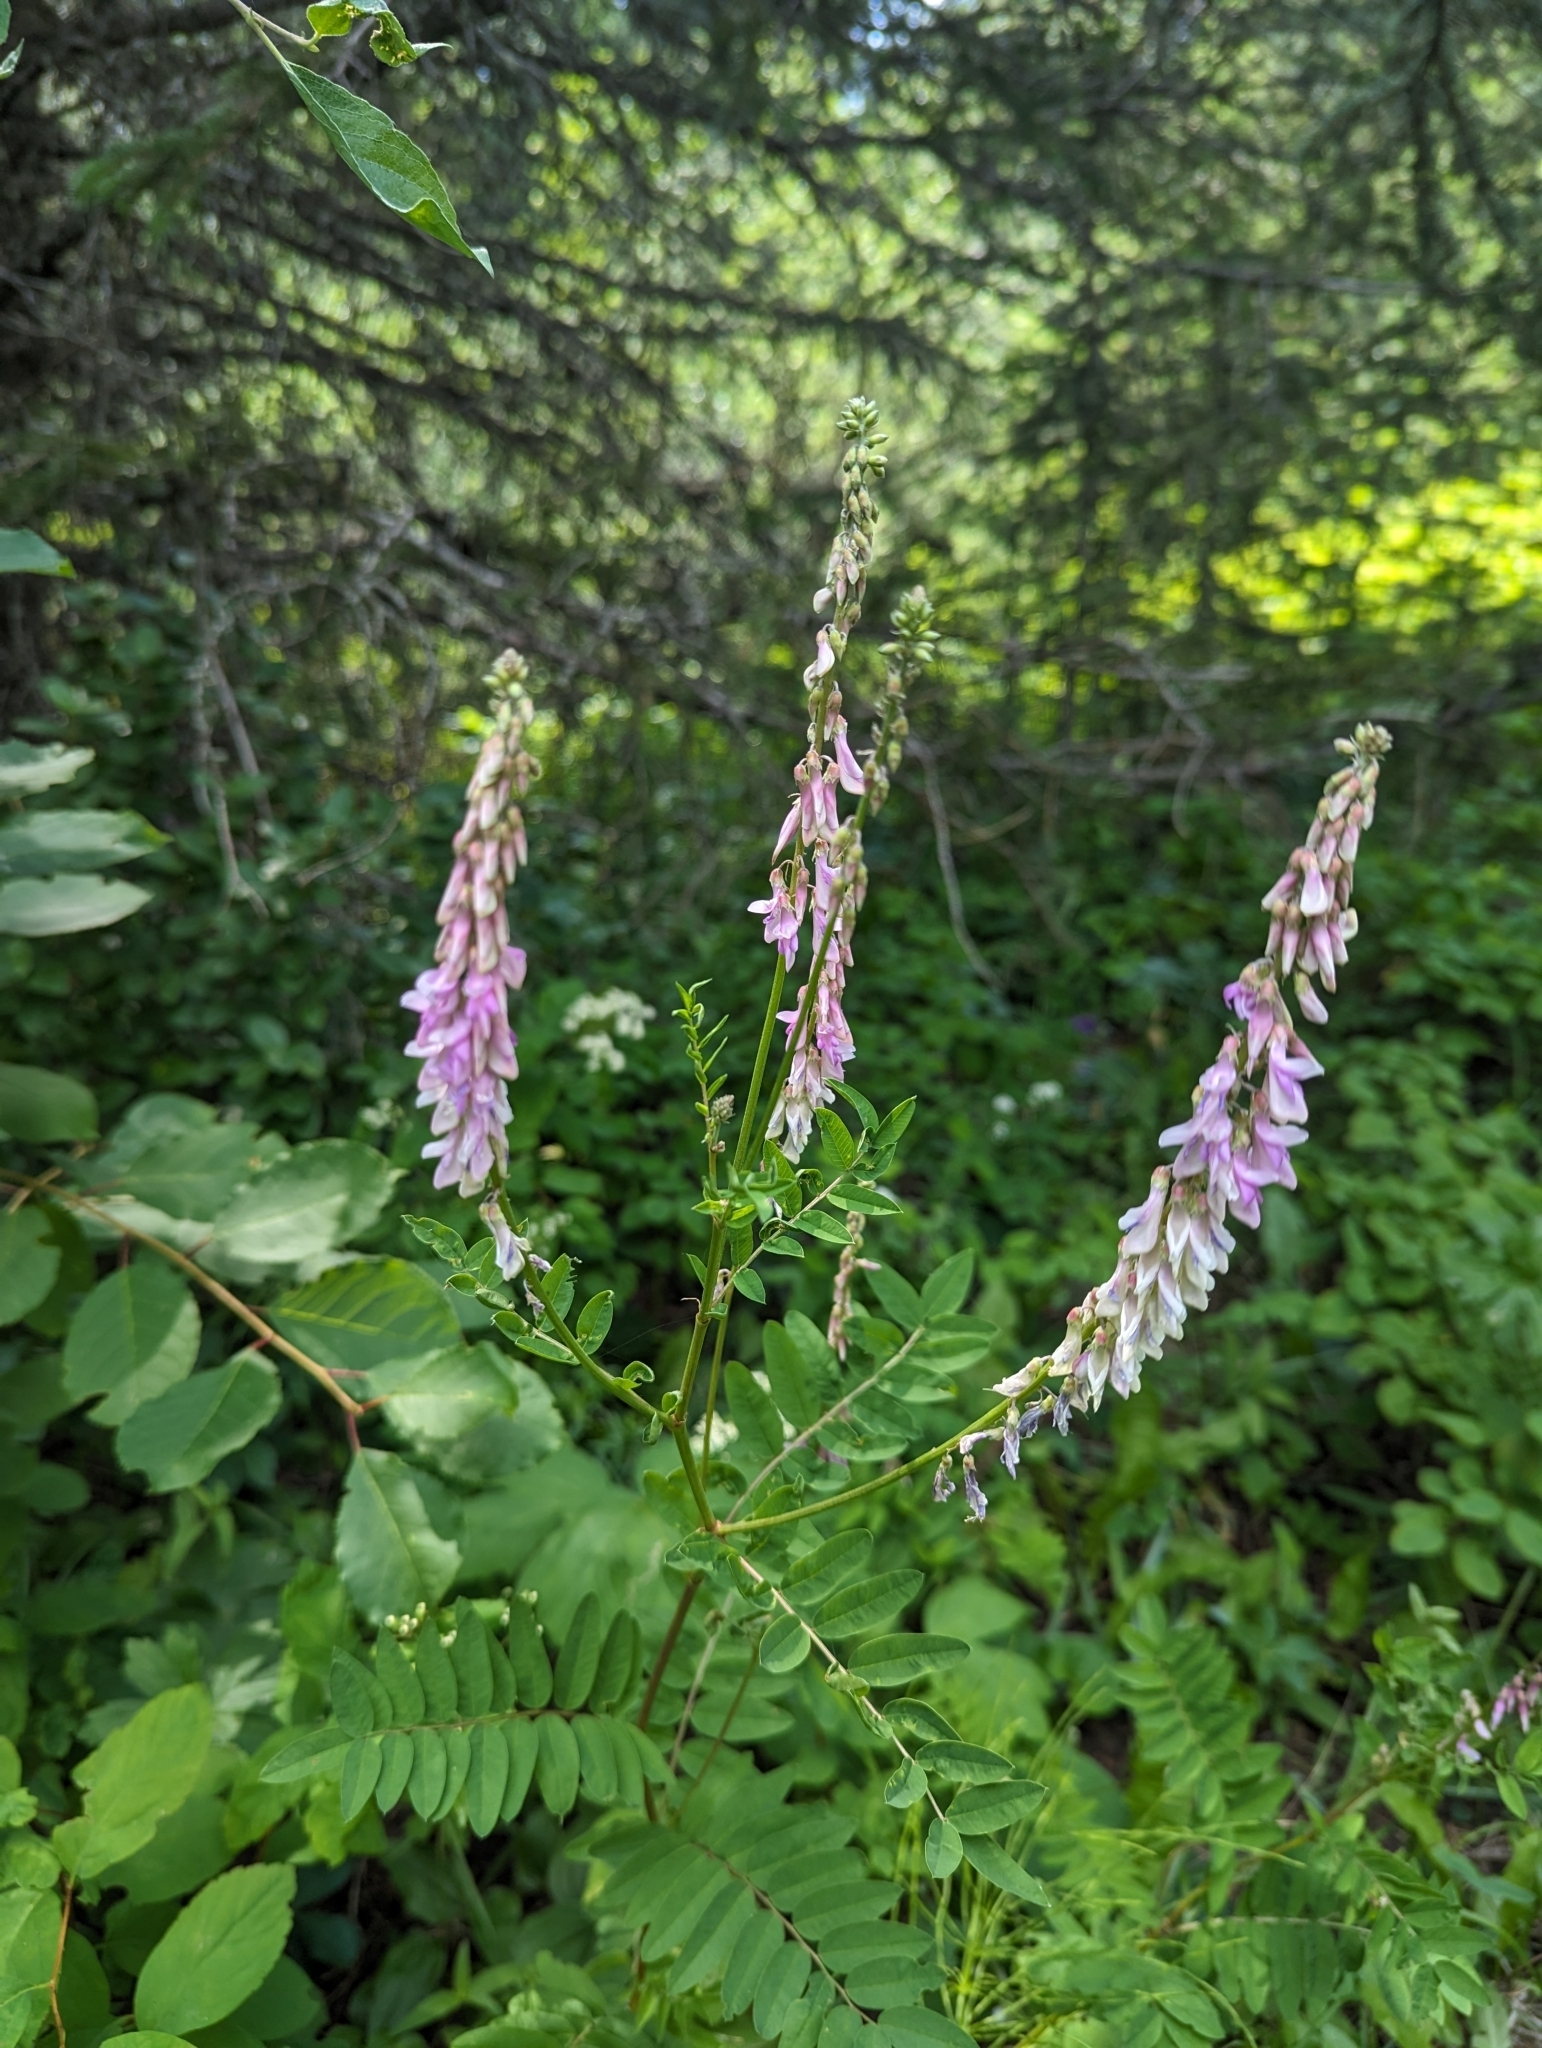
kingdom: Plantae
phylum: Tracheophyta
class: Magnoliopsida
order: Fabales
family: Fabaceae
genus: Hedysarum
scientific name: Hedysarum alpinum
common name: Alpine sweet-vetch
